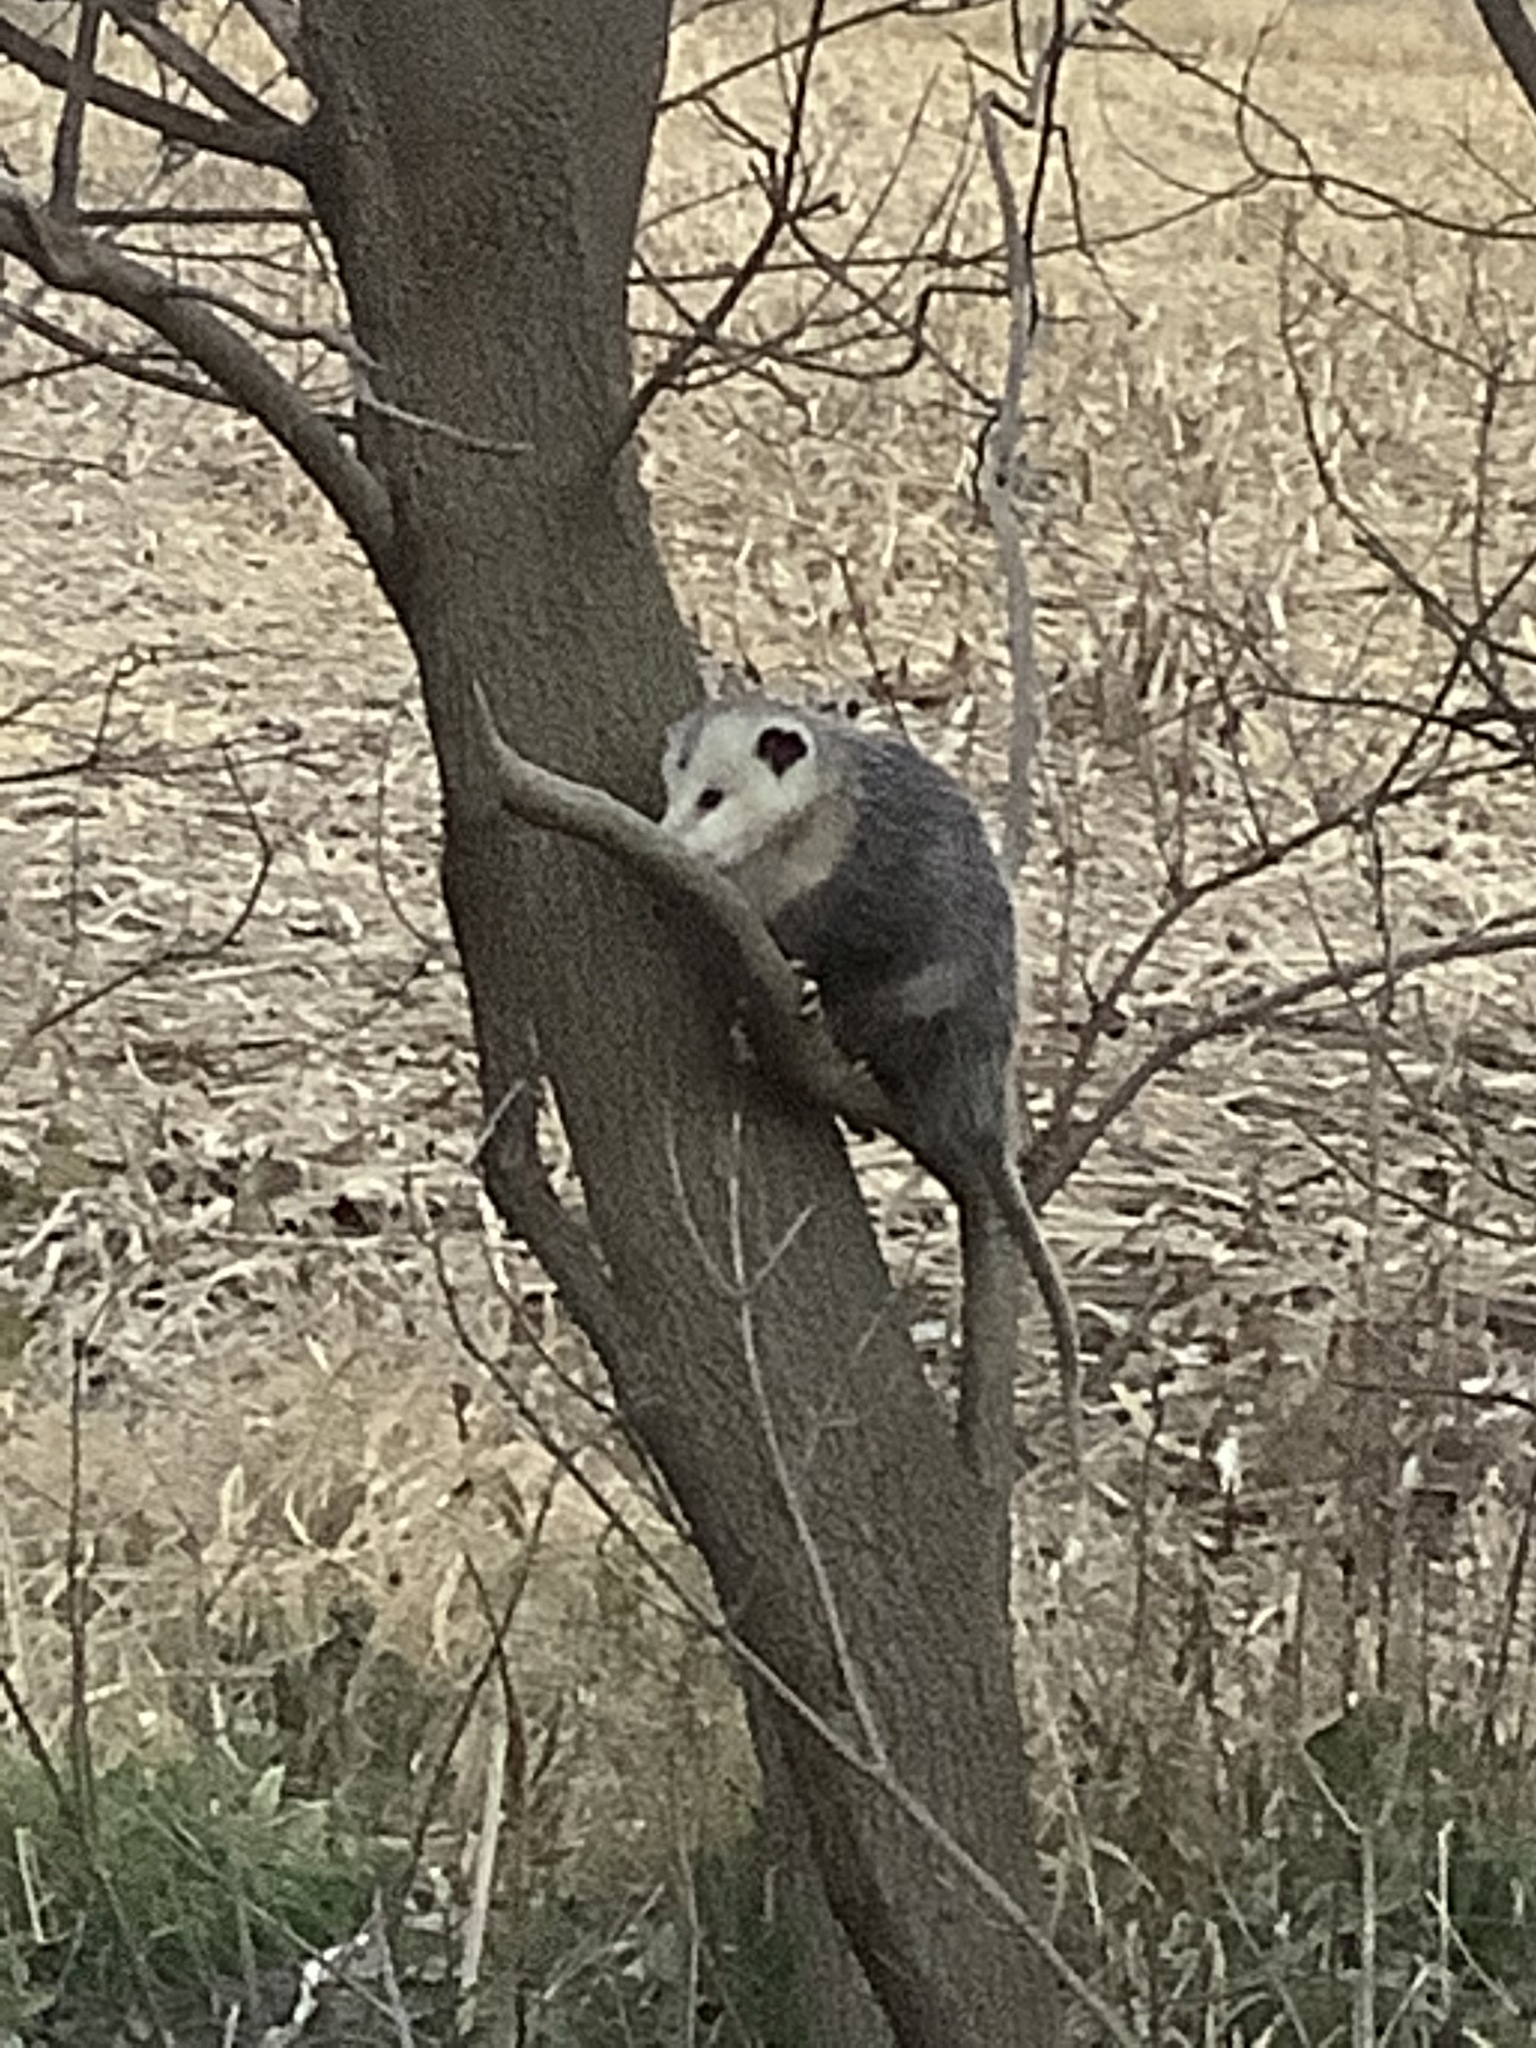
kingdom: Animalia
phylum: Chordata
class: Mammalia
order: Didelphimorphia
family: Didelphidae
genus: Didelphis
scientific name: Didelphis virginiana
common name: Virginia opossum
